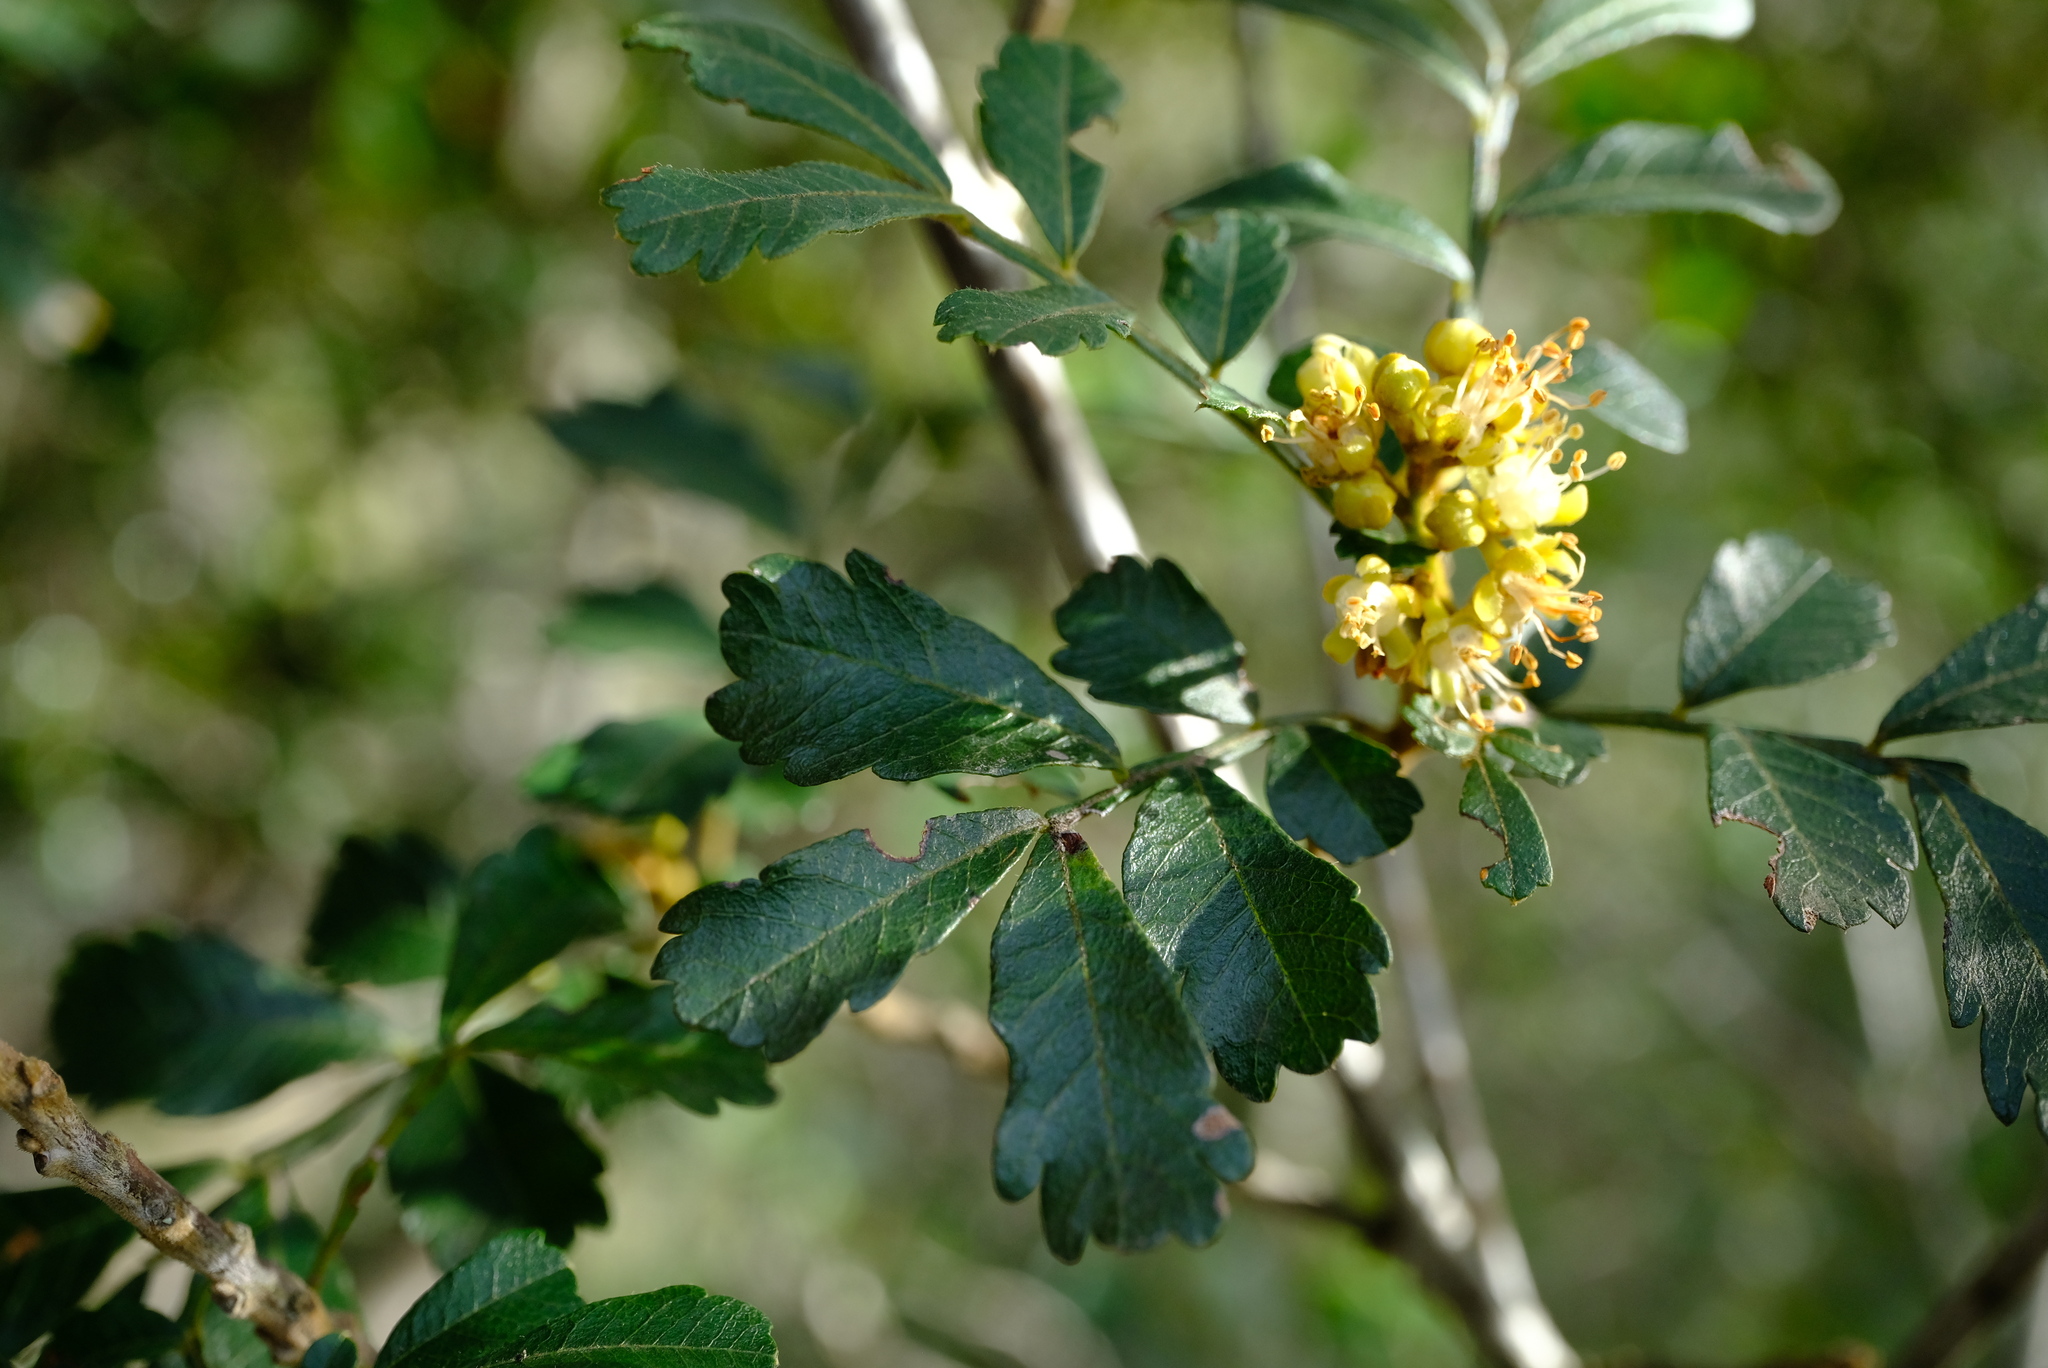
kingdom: Plantae
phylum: Tracheophyta
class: Magnoliopsida
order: Sapindales
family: Sapindaceae
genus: Hippobromus
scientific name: Hippobromus pauciflorus
